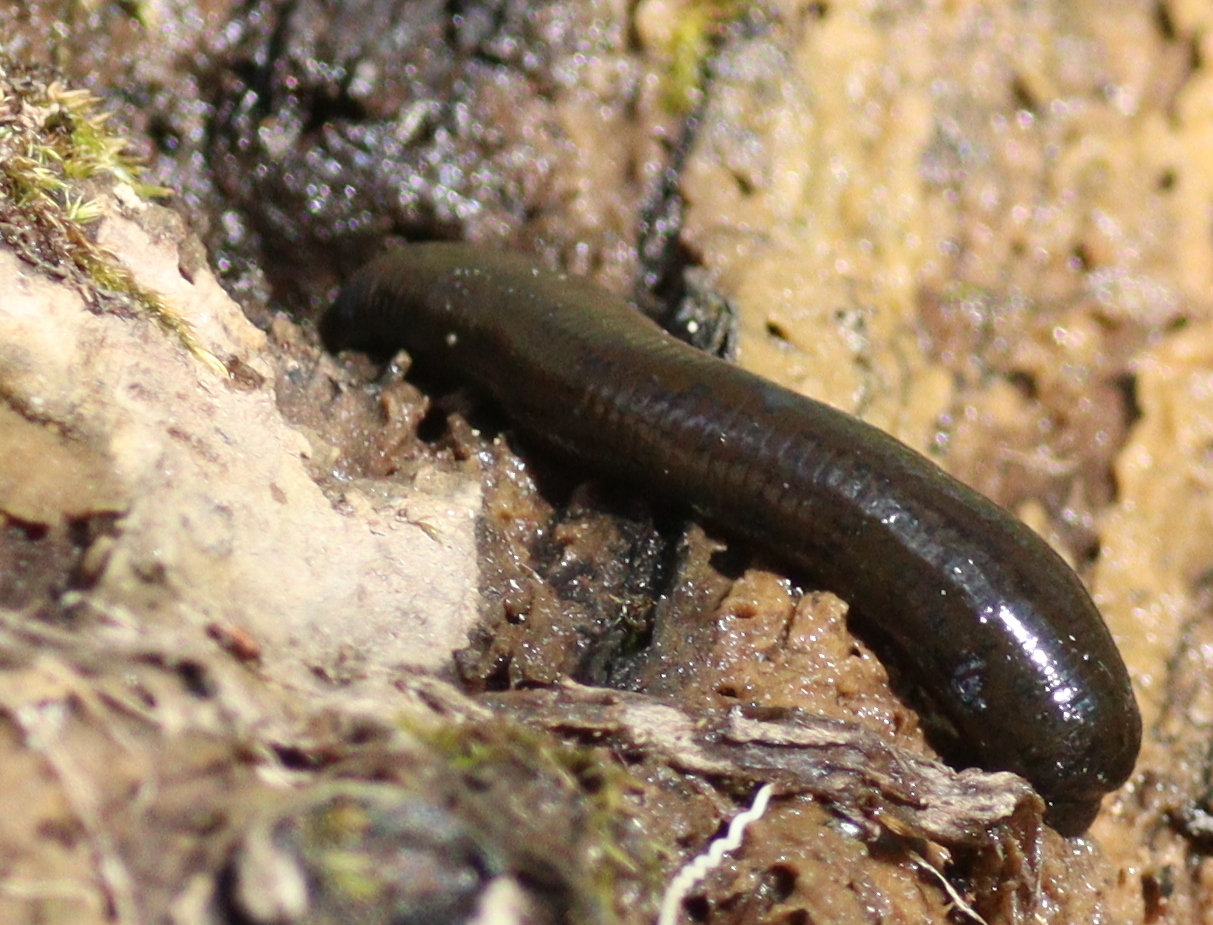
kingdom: Animalia
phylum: Annelida
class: Clitellata
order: Arhynchobdellida
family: Haemopidae
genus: Haemopis
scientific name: Haemopis sanguisuga
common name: Horse leech
